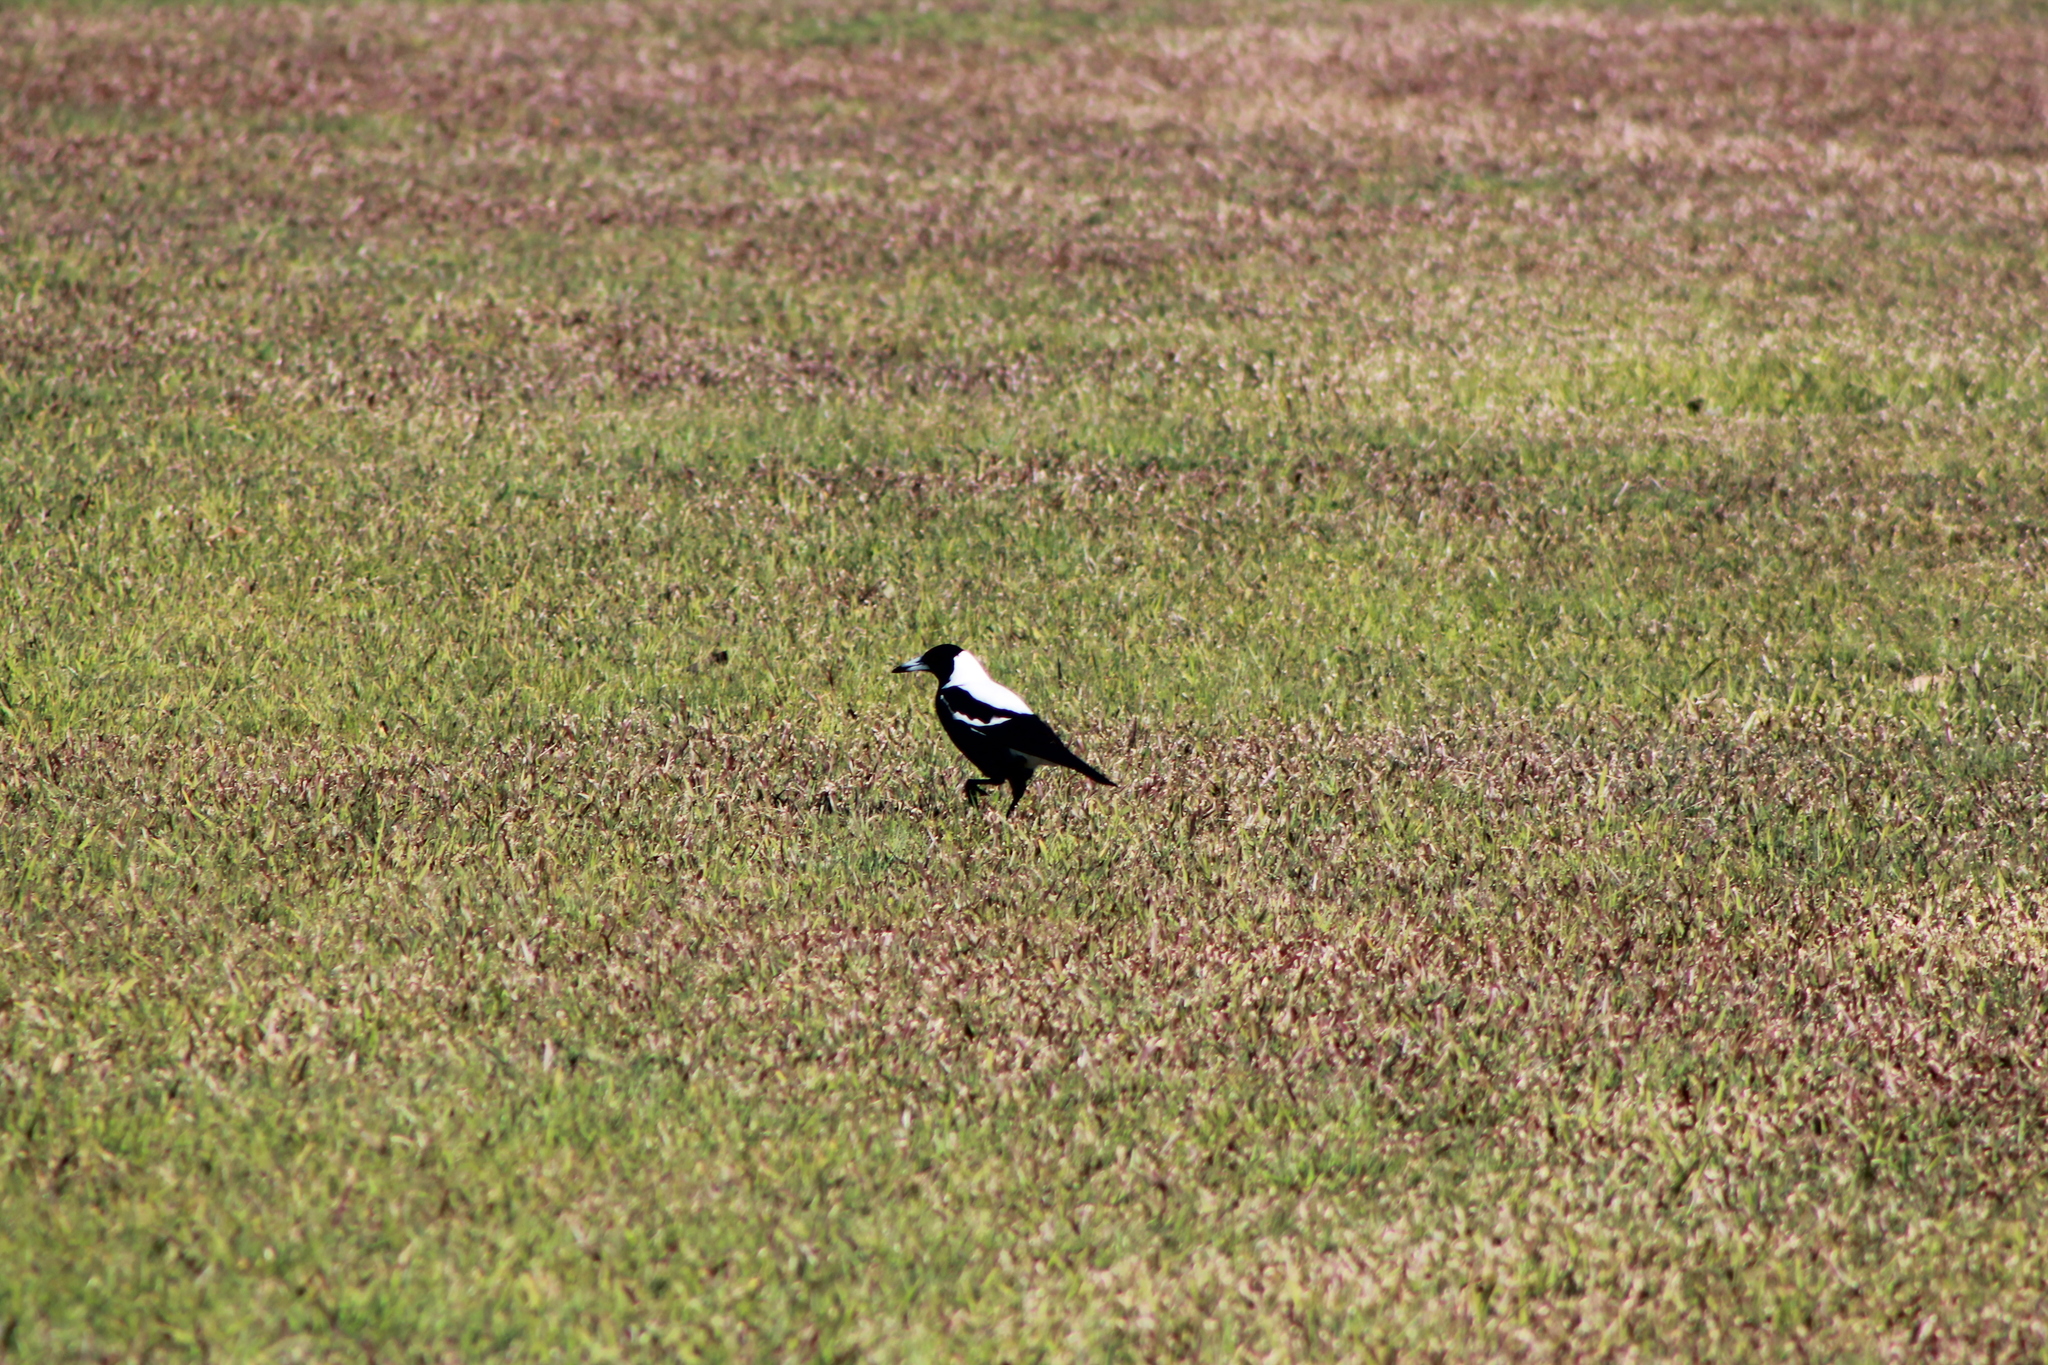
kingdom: Animalia
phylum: Chordata
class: Aves
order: Passeriformes
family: Cracticidae
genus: Gymnorhina
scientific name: Gymnorhina tibicen
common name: Australian magpie
